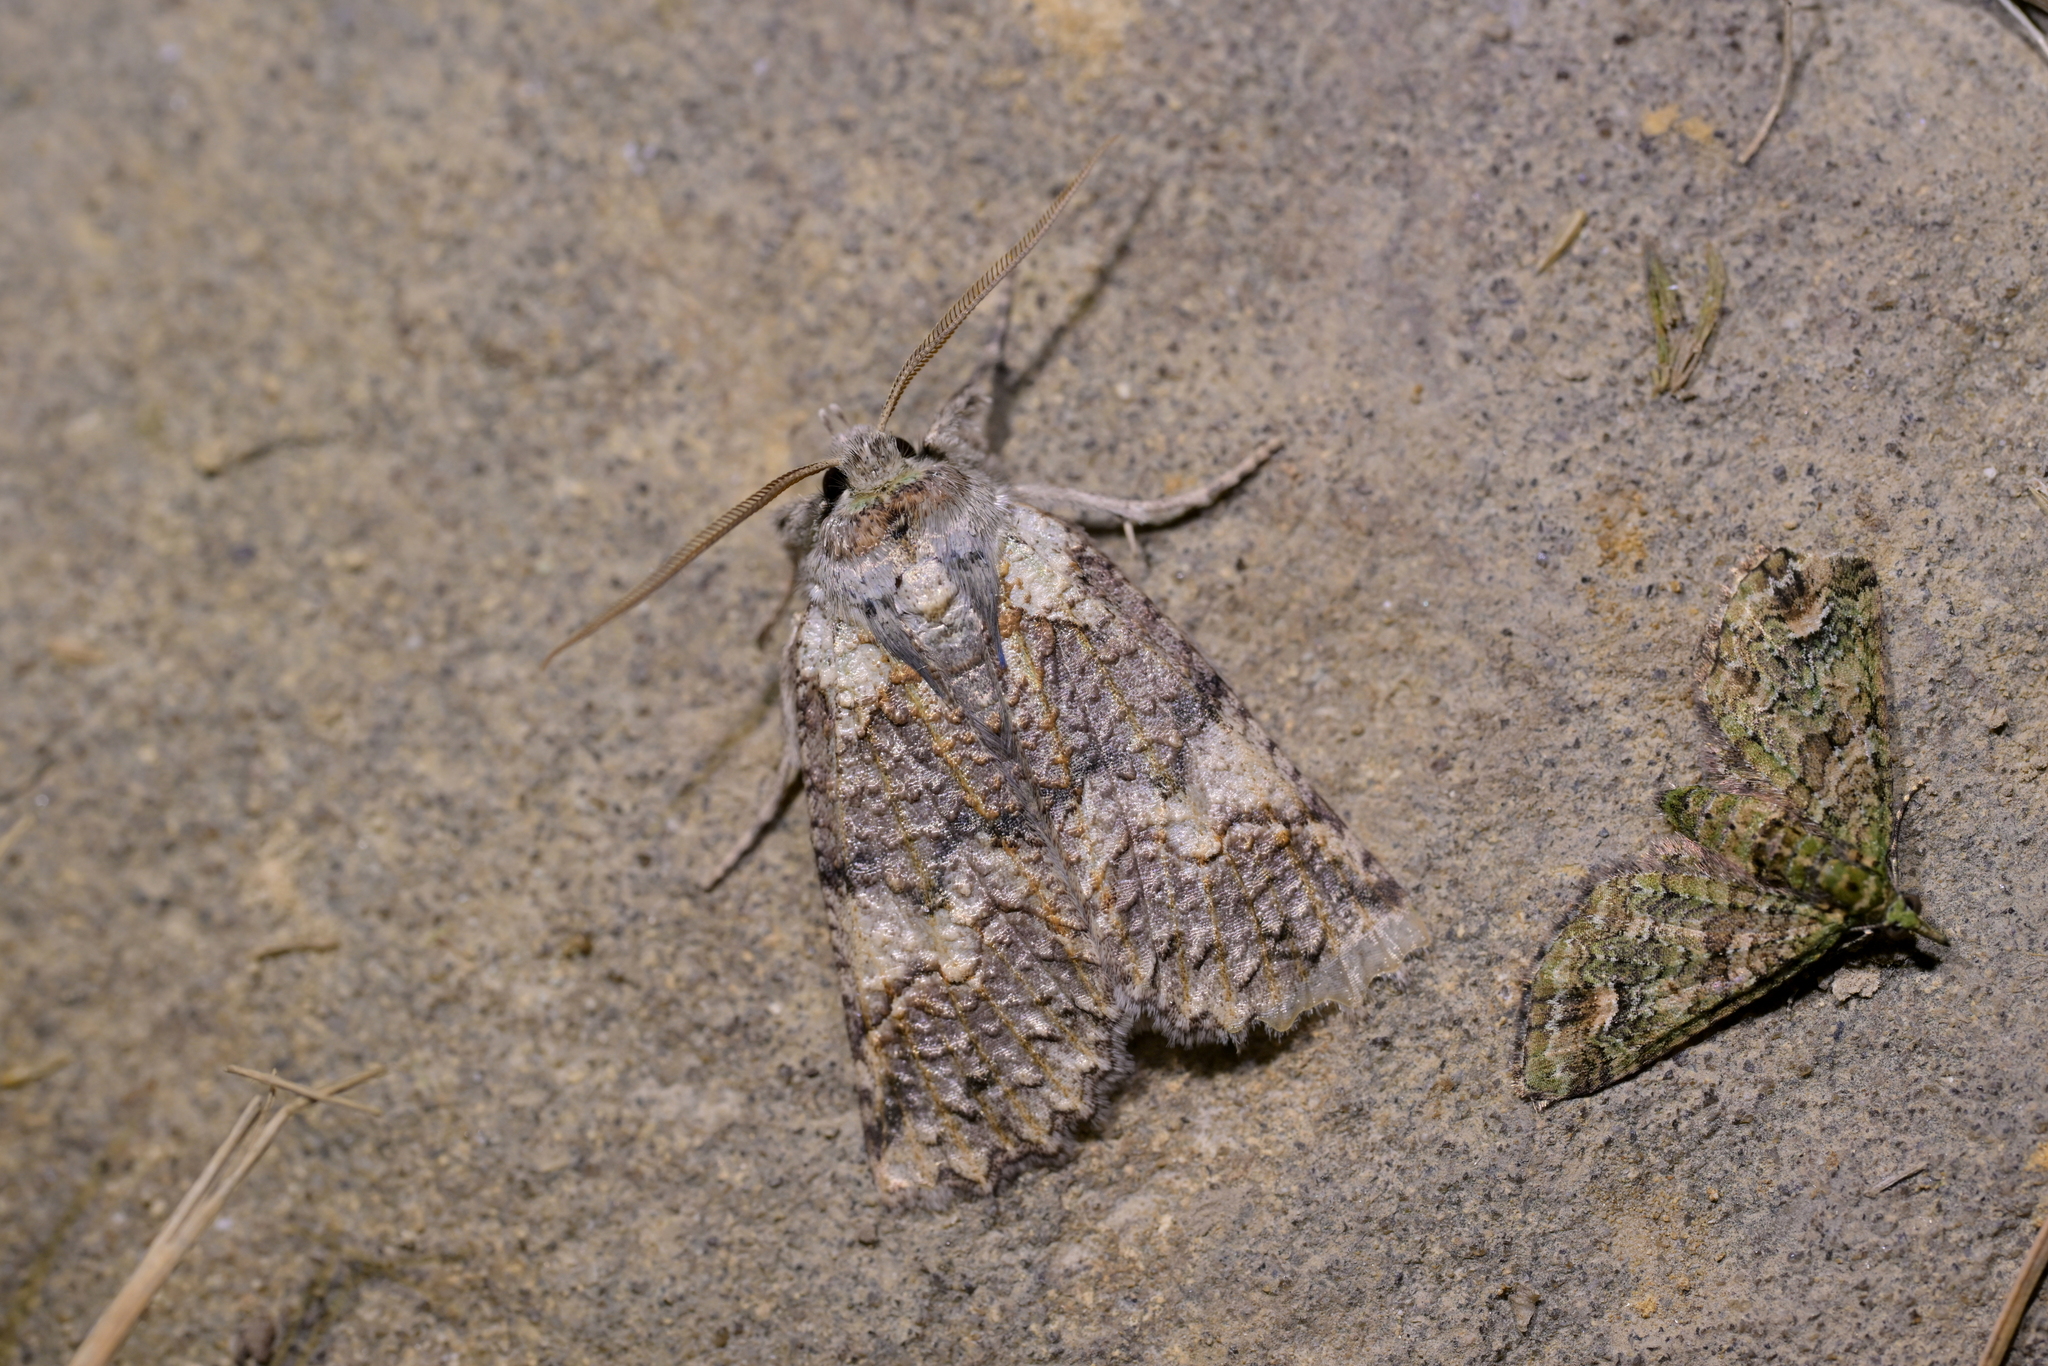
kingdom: Animalia
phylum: Arthropoda
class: Insecta
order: Lepidoptera
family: Geometridae
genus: Declana
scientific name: Declana floccosa
